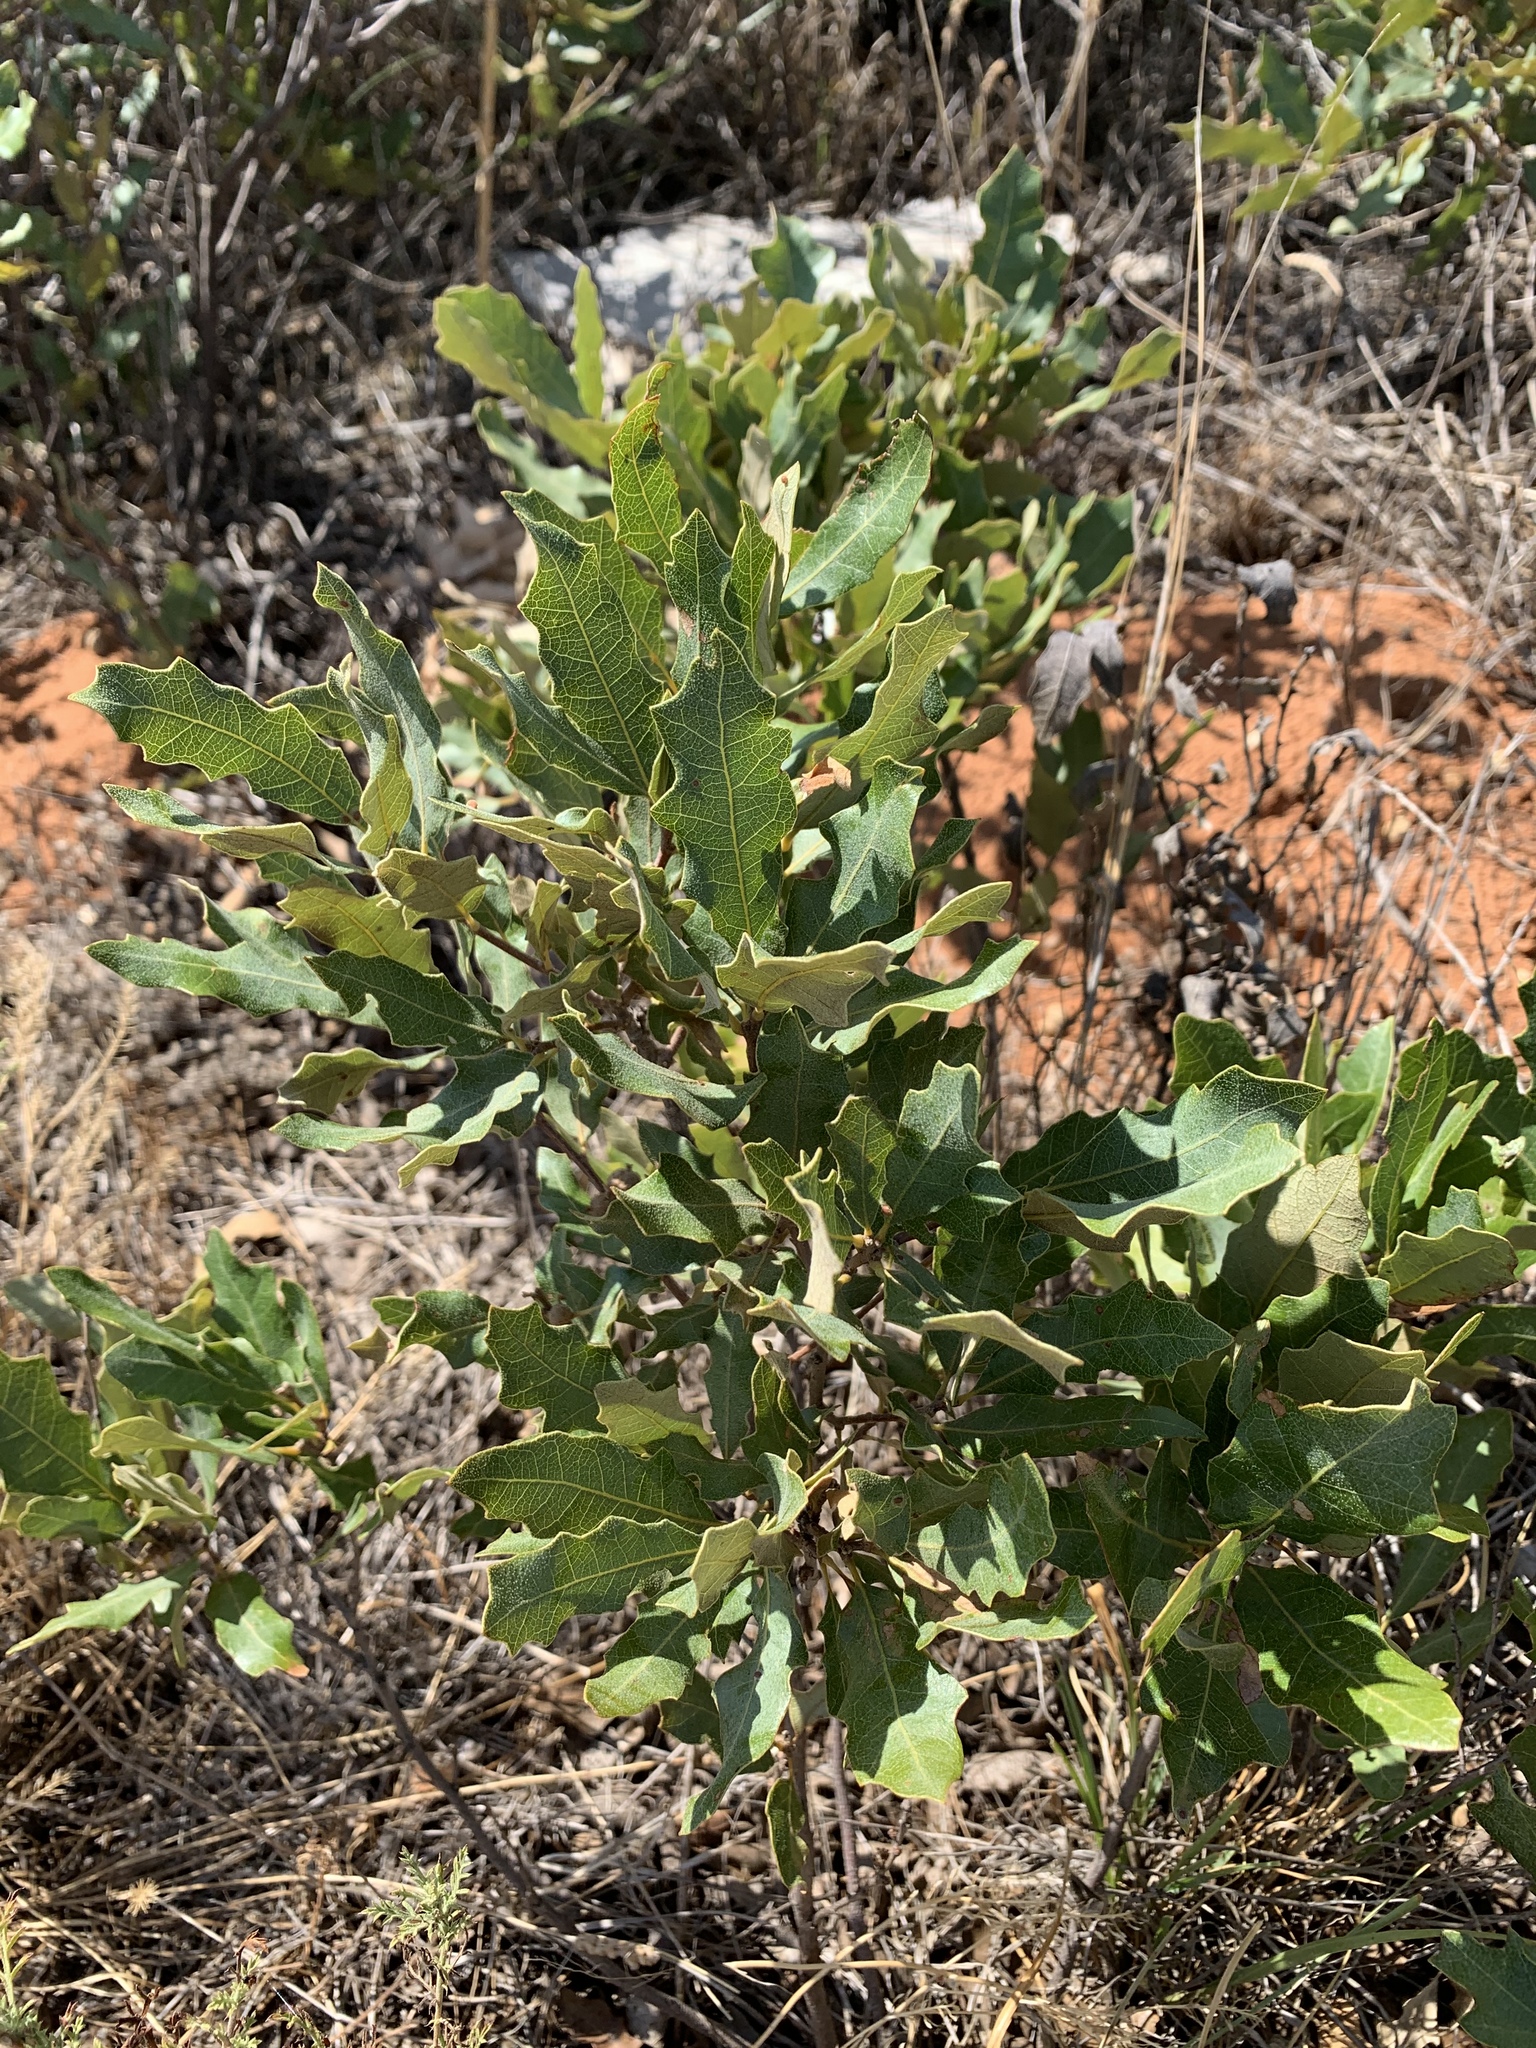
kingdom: Plantae
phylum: Tracheophyta
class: Magnoliopsida
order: Fagales
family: Fagaceae
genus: Quercus
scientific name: Quercus havardii
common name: Shinnery oak
